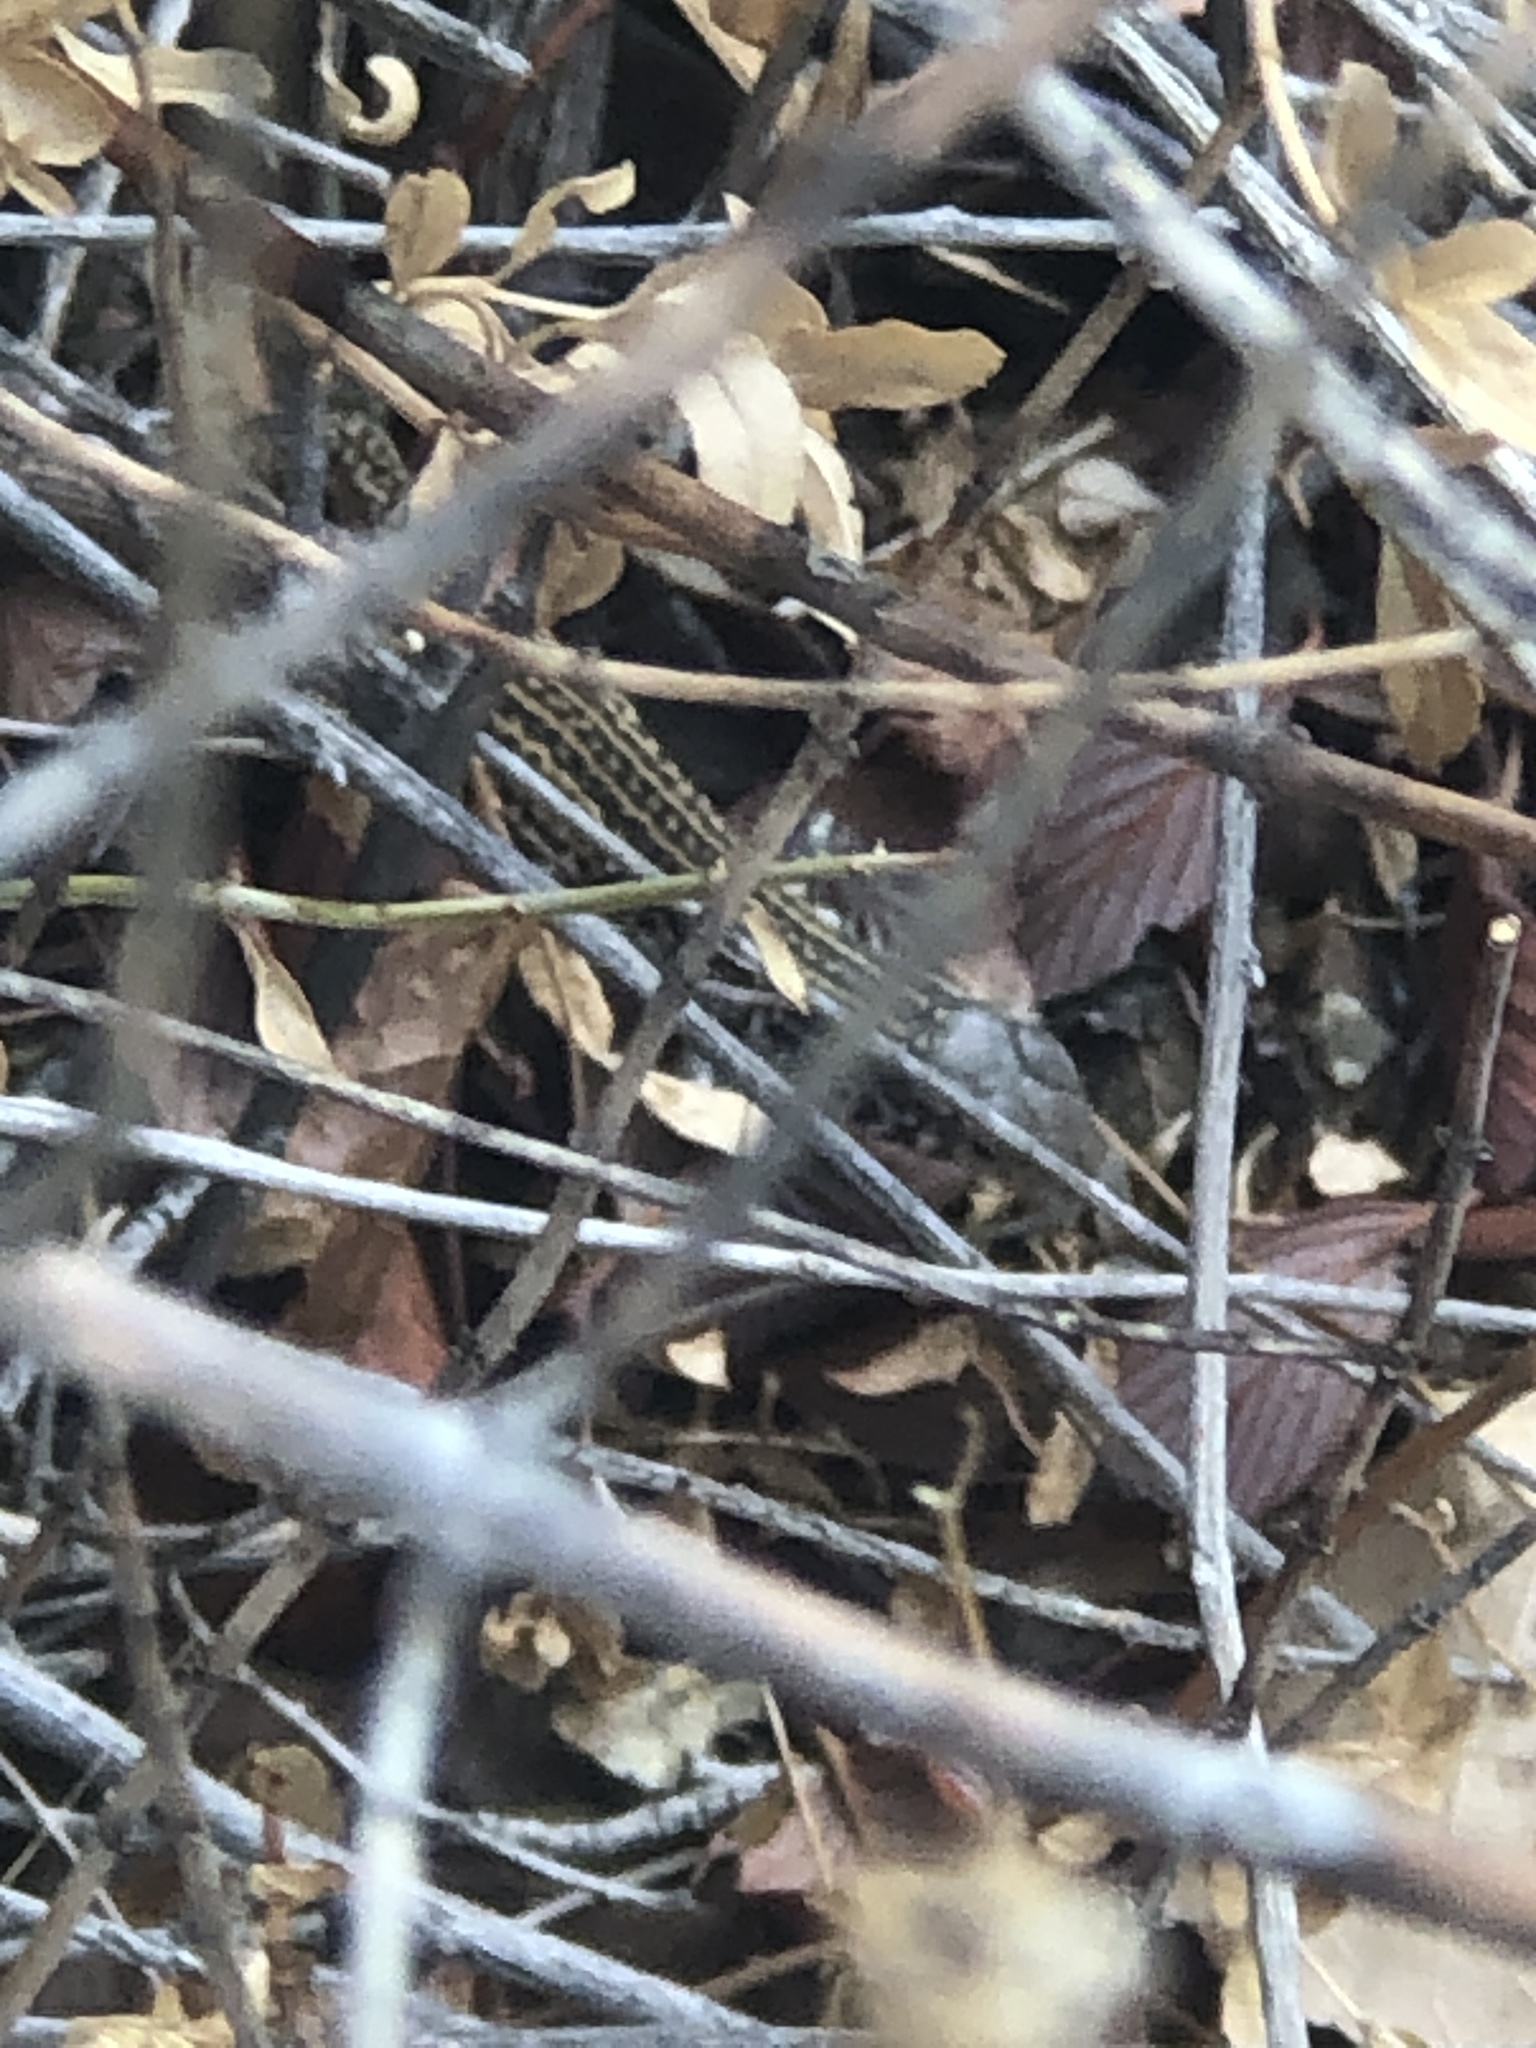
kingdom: Animalia
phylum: Chordata
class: Squamata
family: Teiidae
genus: Aspidoscelis
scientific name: Aspidoscelis tigris
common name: Tiger whiptail
